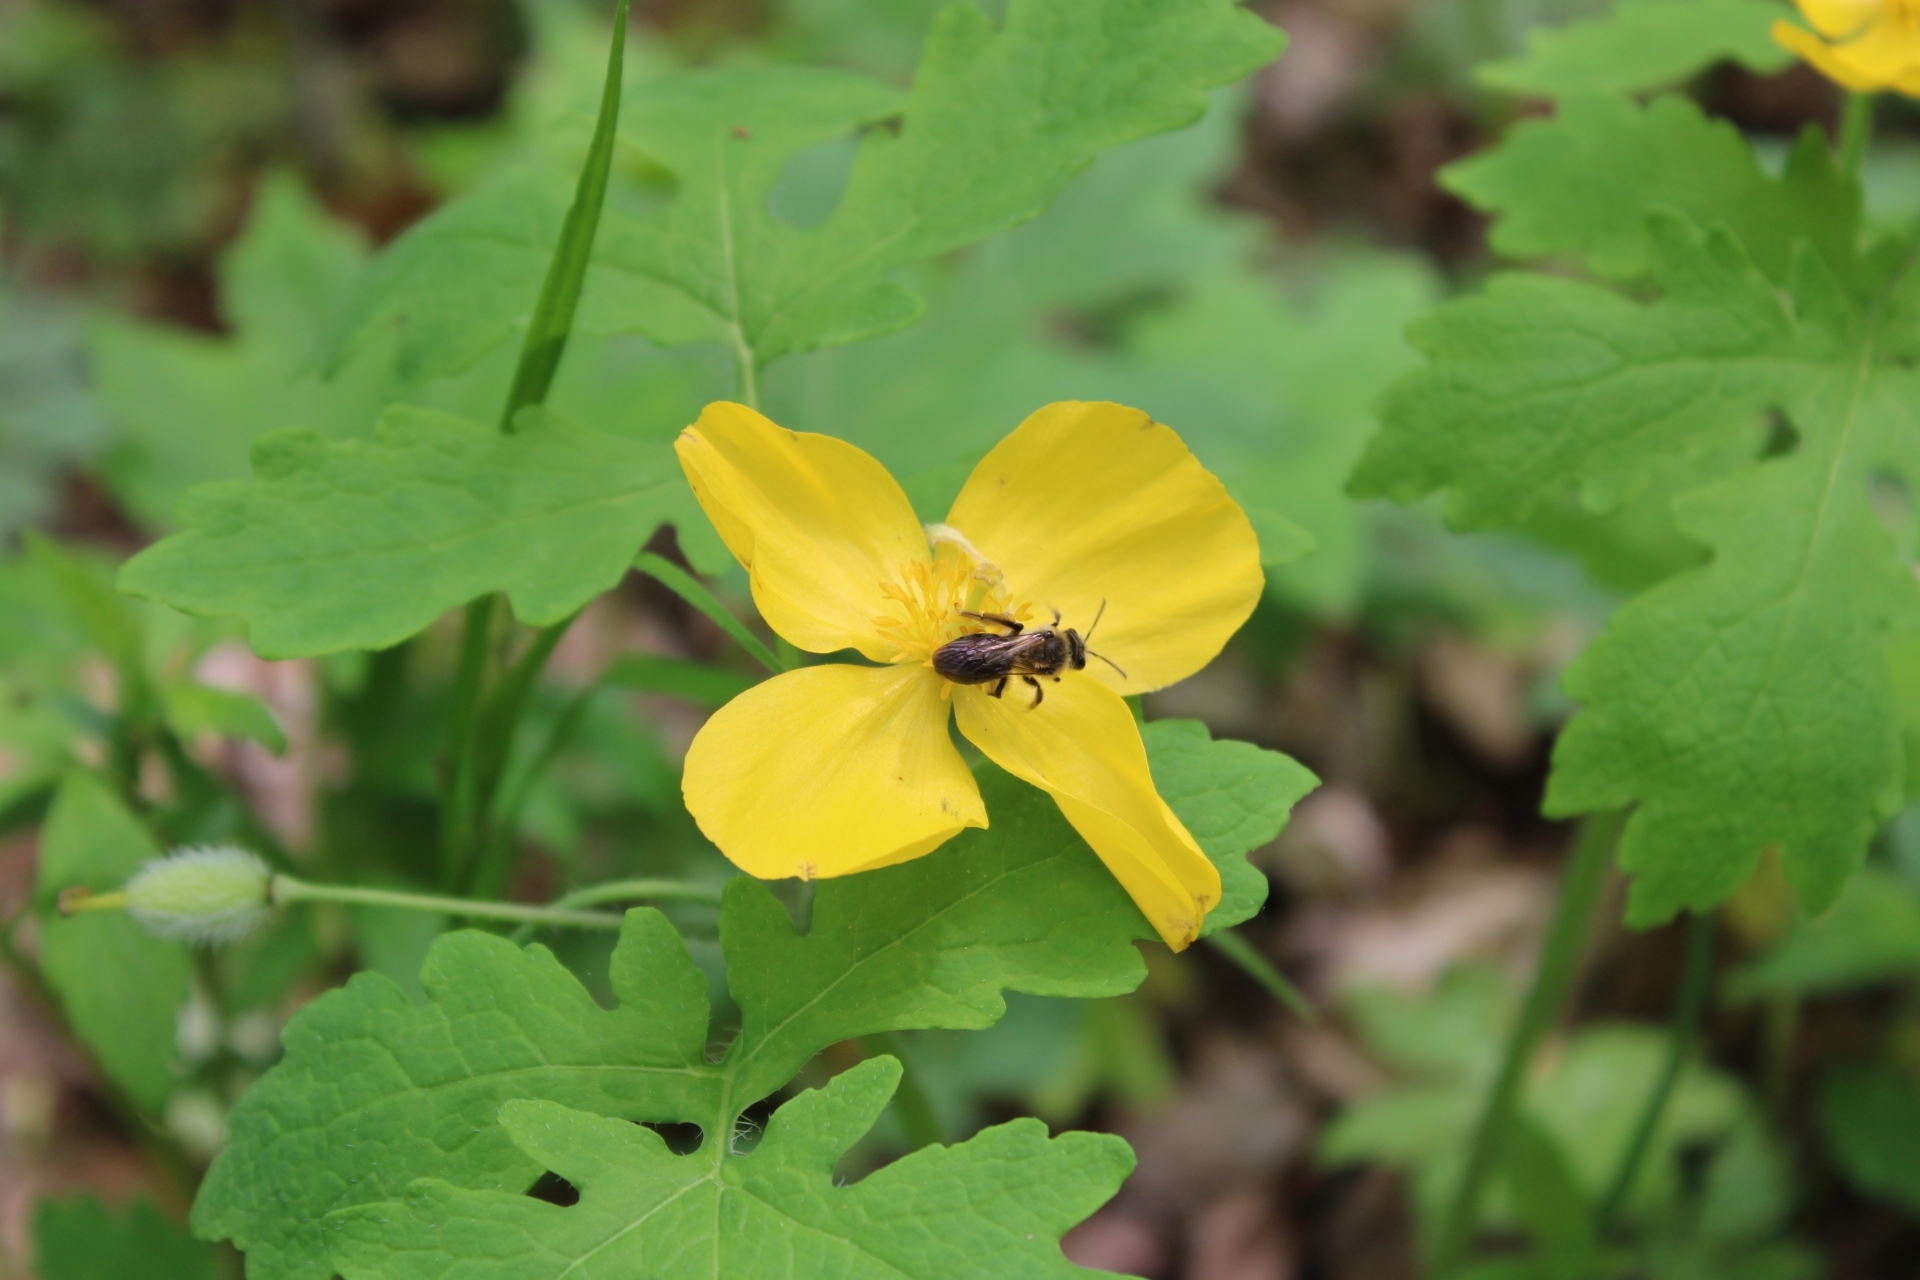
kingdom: Plantae
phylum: Tracheophyta
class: Magnoliopsida
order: Ranunculales
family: Papaveraceae
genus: Stylophorum
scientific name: Stylophorum diphyllum
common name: Celandine poppy
